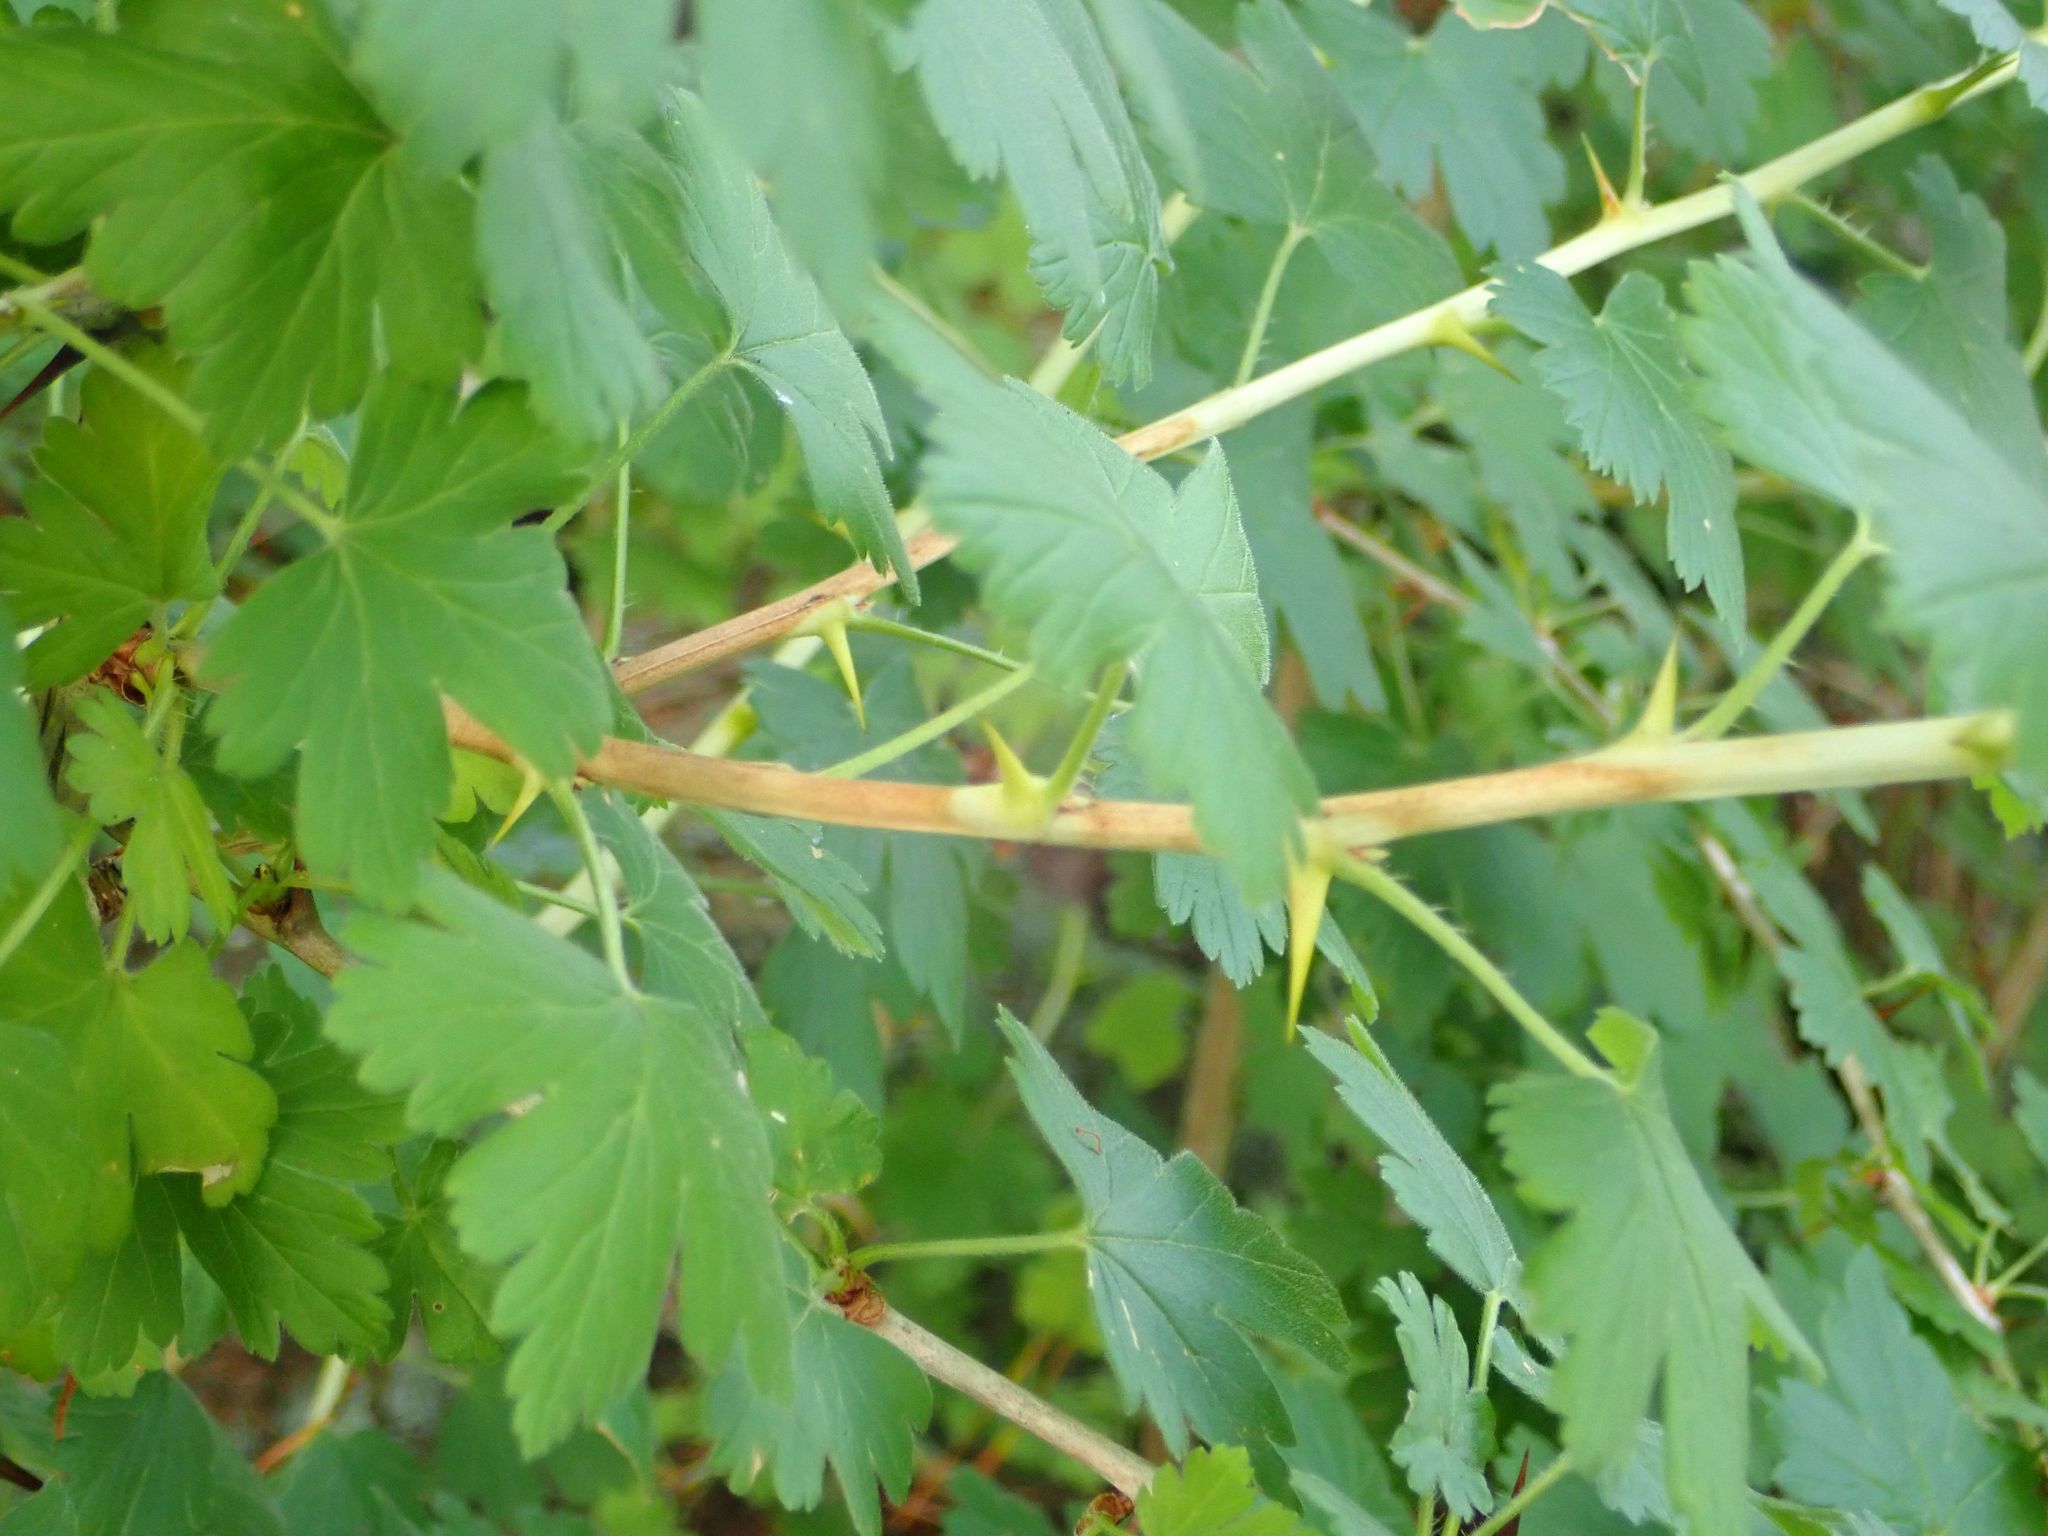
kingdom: Plantae
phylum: Tracheophyta
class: Magnoliopsida
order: Saxifragales
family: Grossulariaceae
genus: Ribes
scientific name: Ribes uva-crispa
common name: Gooseberry
